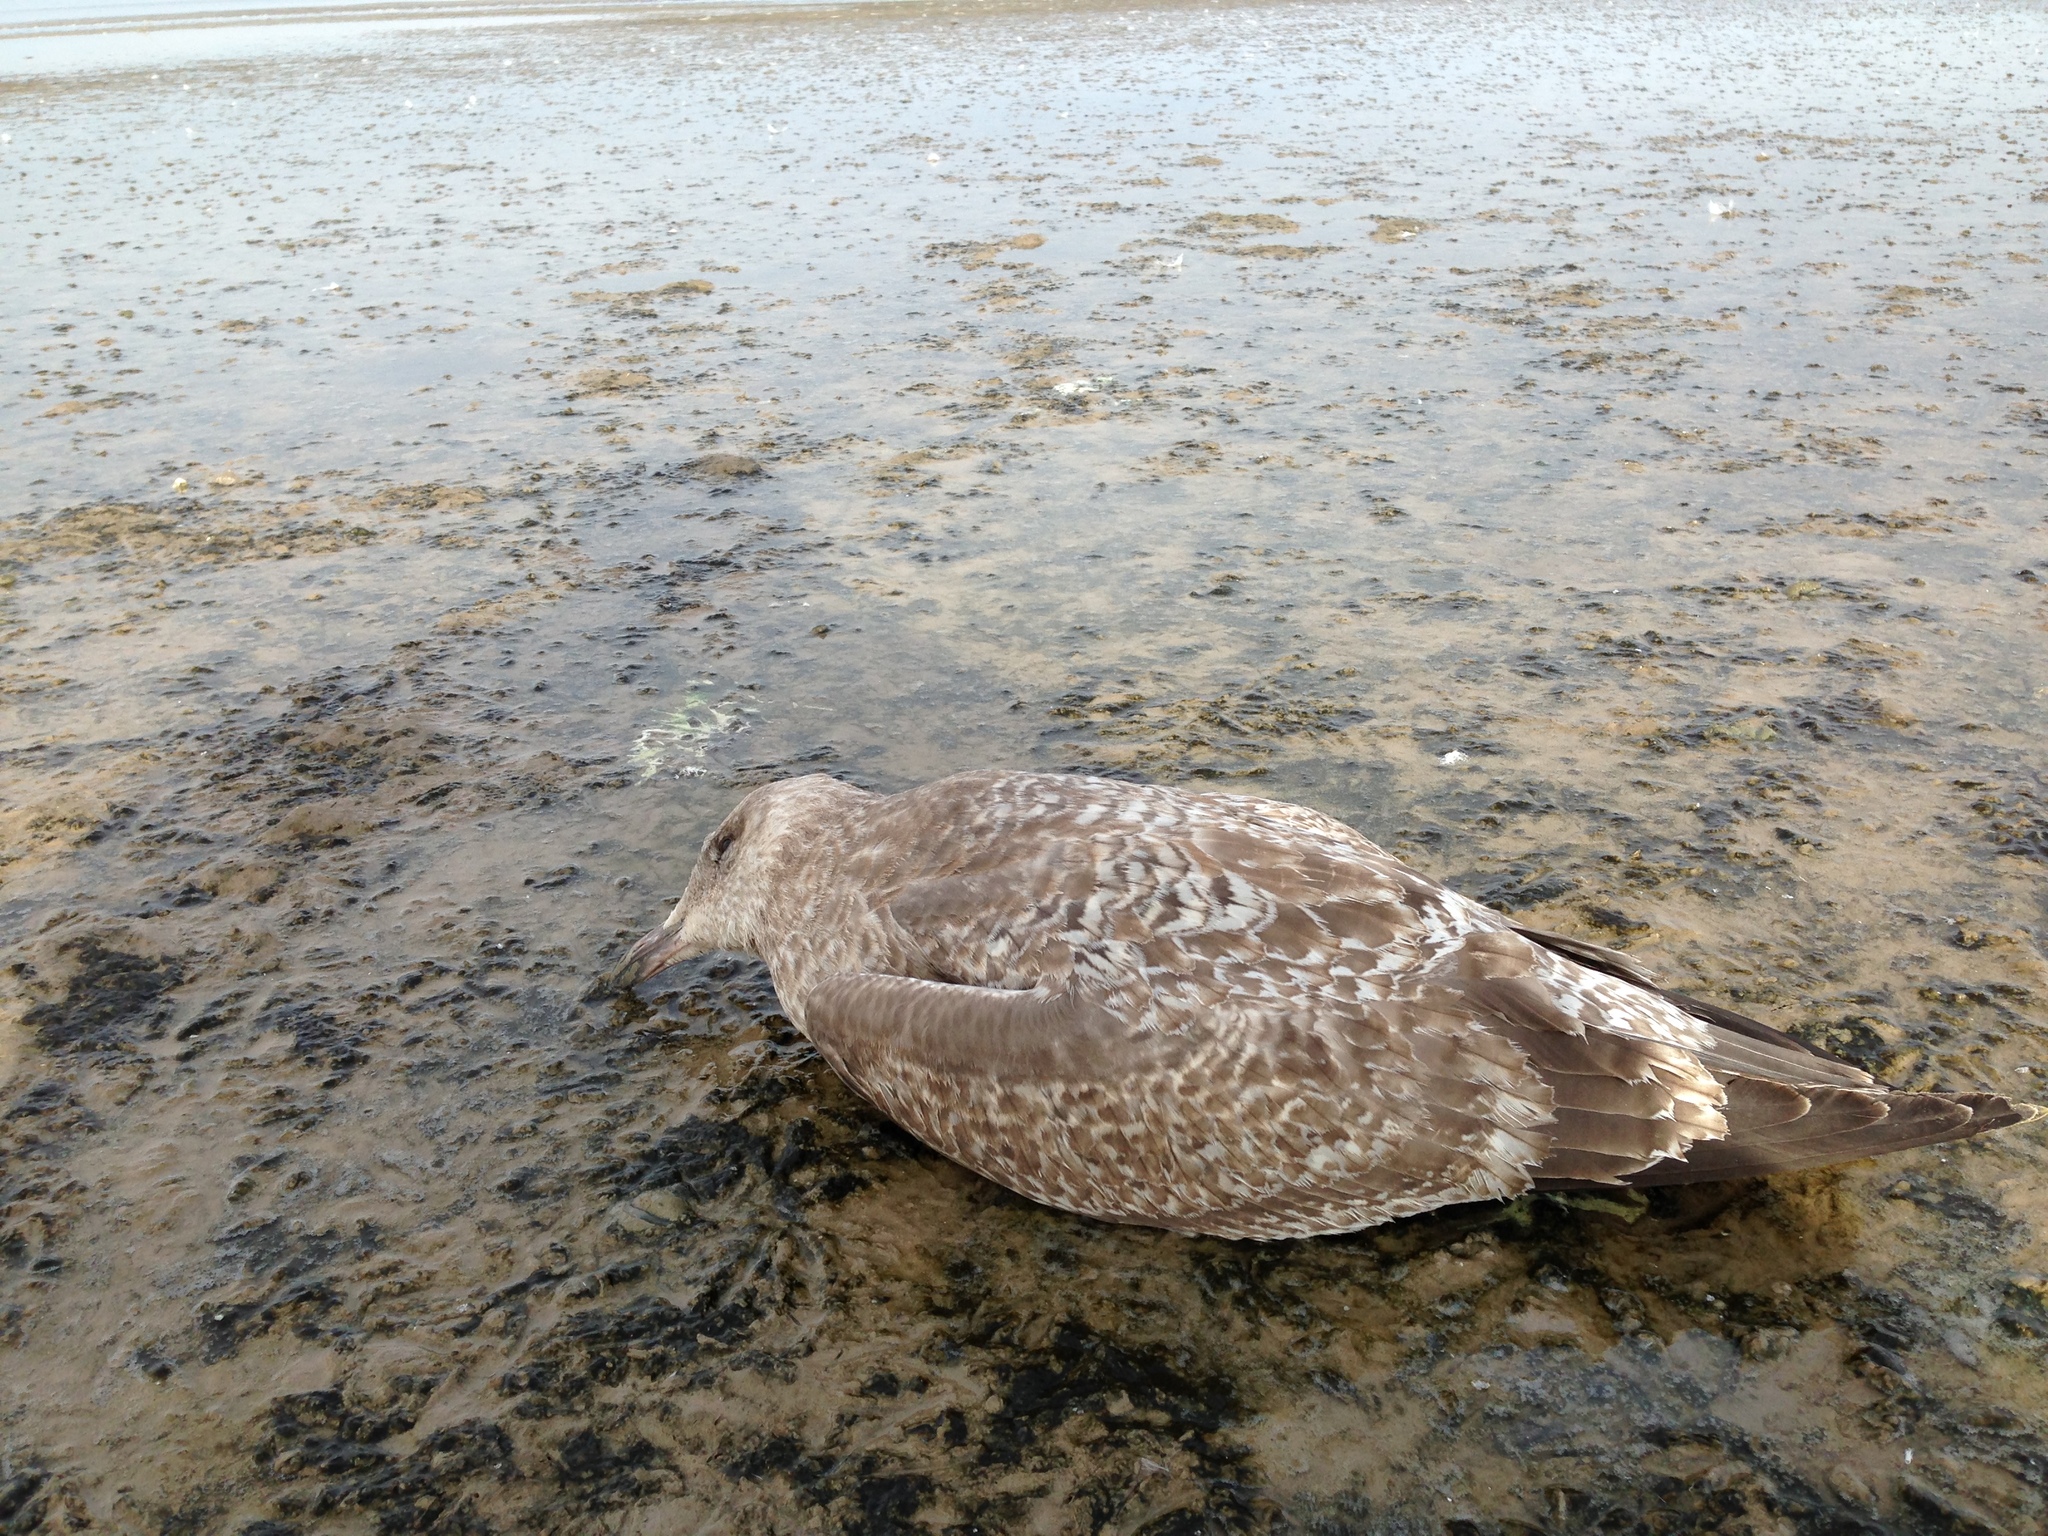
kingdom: Animalia
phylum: Chordata
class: Aves
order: Charadriiformes
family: Laridae
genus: Larus
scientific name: Larus argentatus
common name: Herring gull
